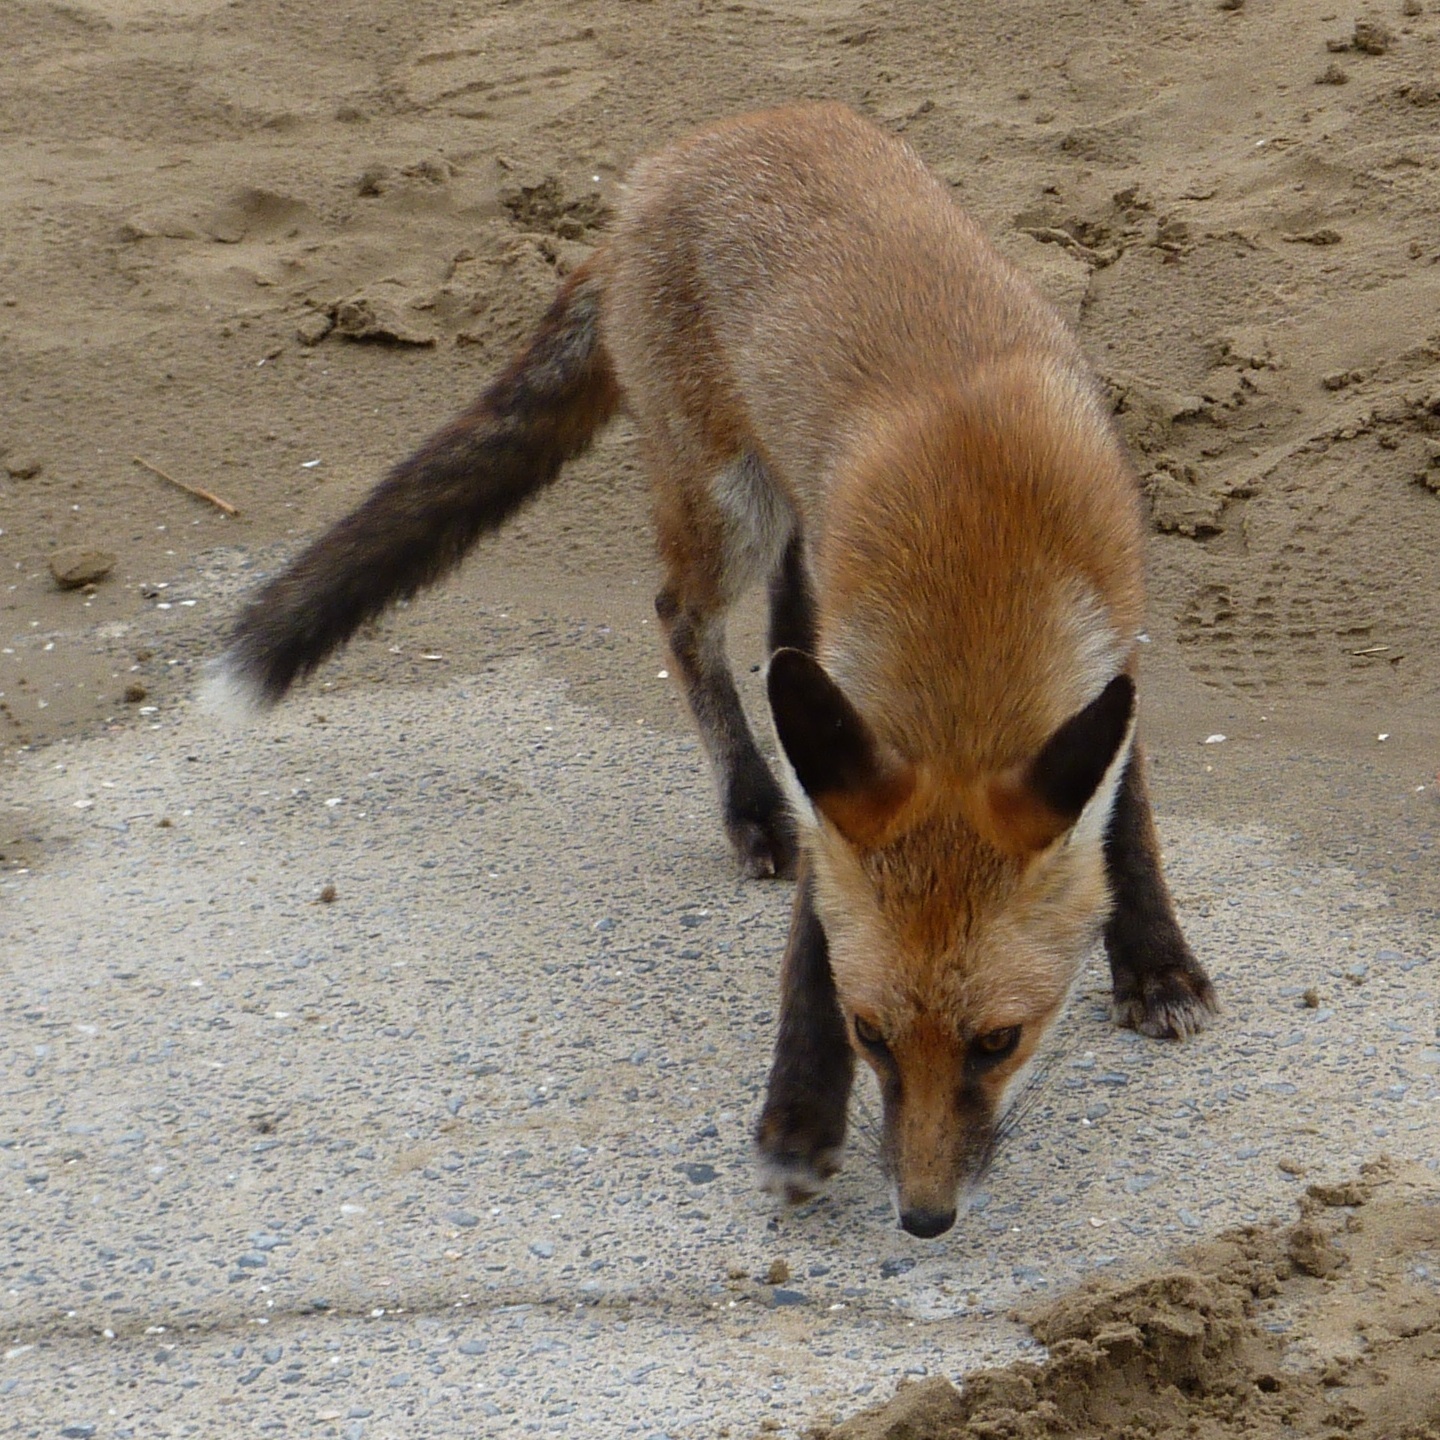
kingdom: Animalia
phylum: Chordata
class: Mammalia
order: Carnivora
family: Canidae
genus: Vulpes
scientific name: Vulpes vulpes
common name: Red fox
